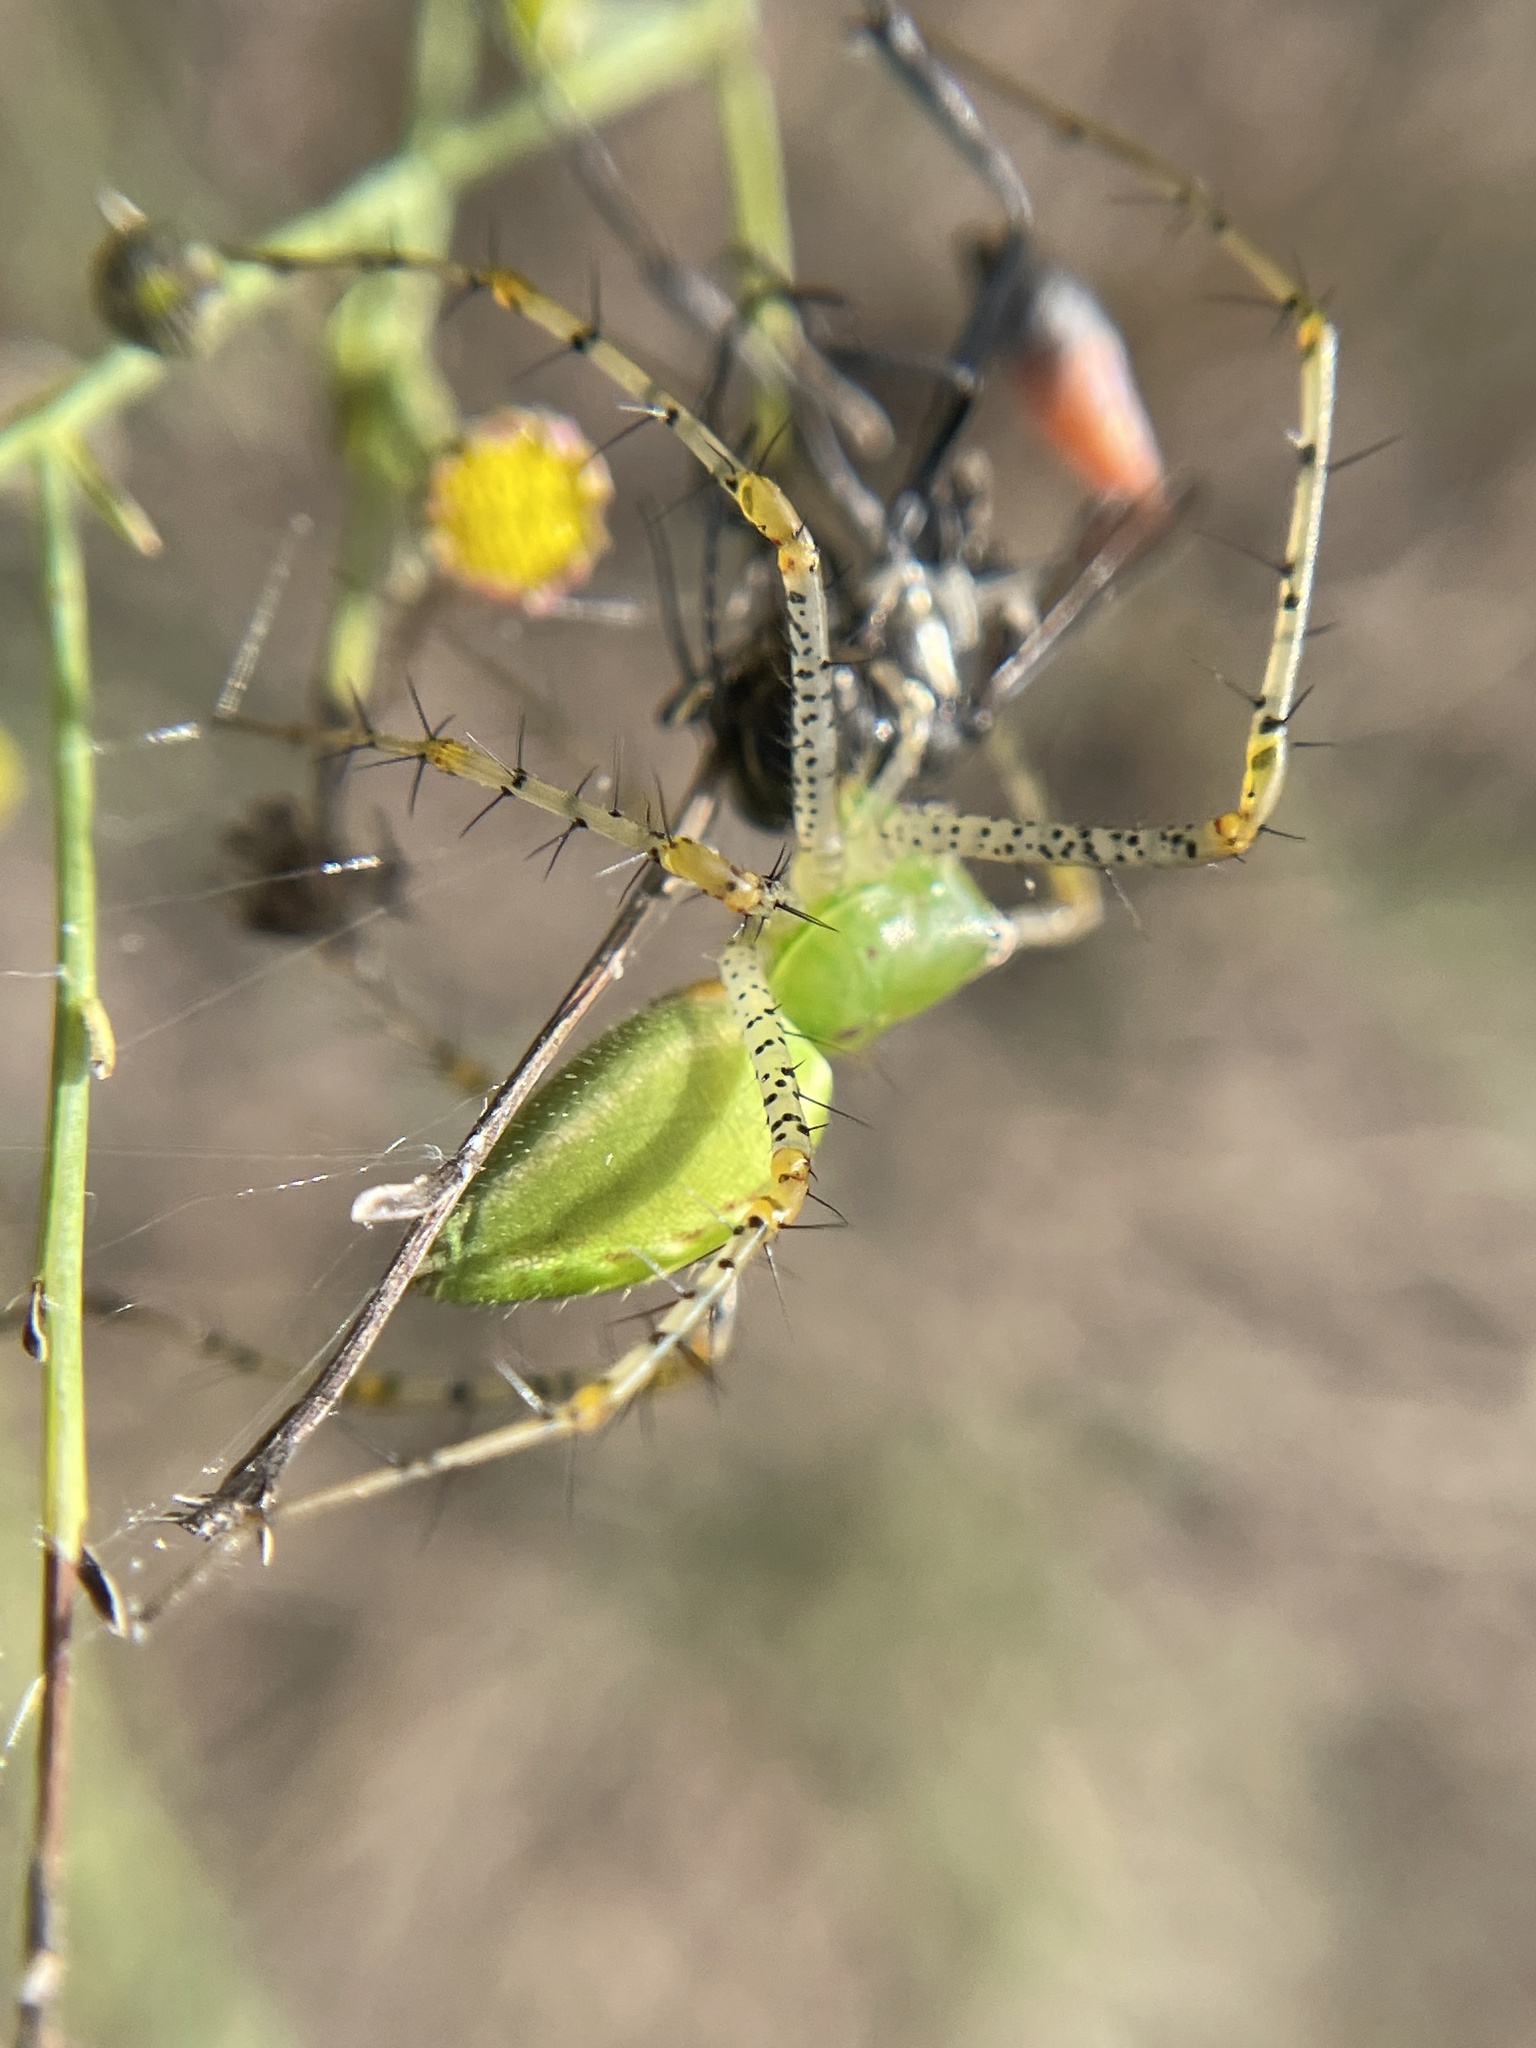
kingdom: Animalia
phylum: Arthropoda
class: Arachnida
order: Araneae
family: Oxyopidae
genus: Peucetia
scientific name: Peucetia viridans
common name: Lynx spiders
